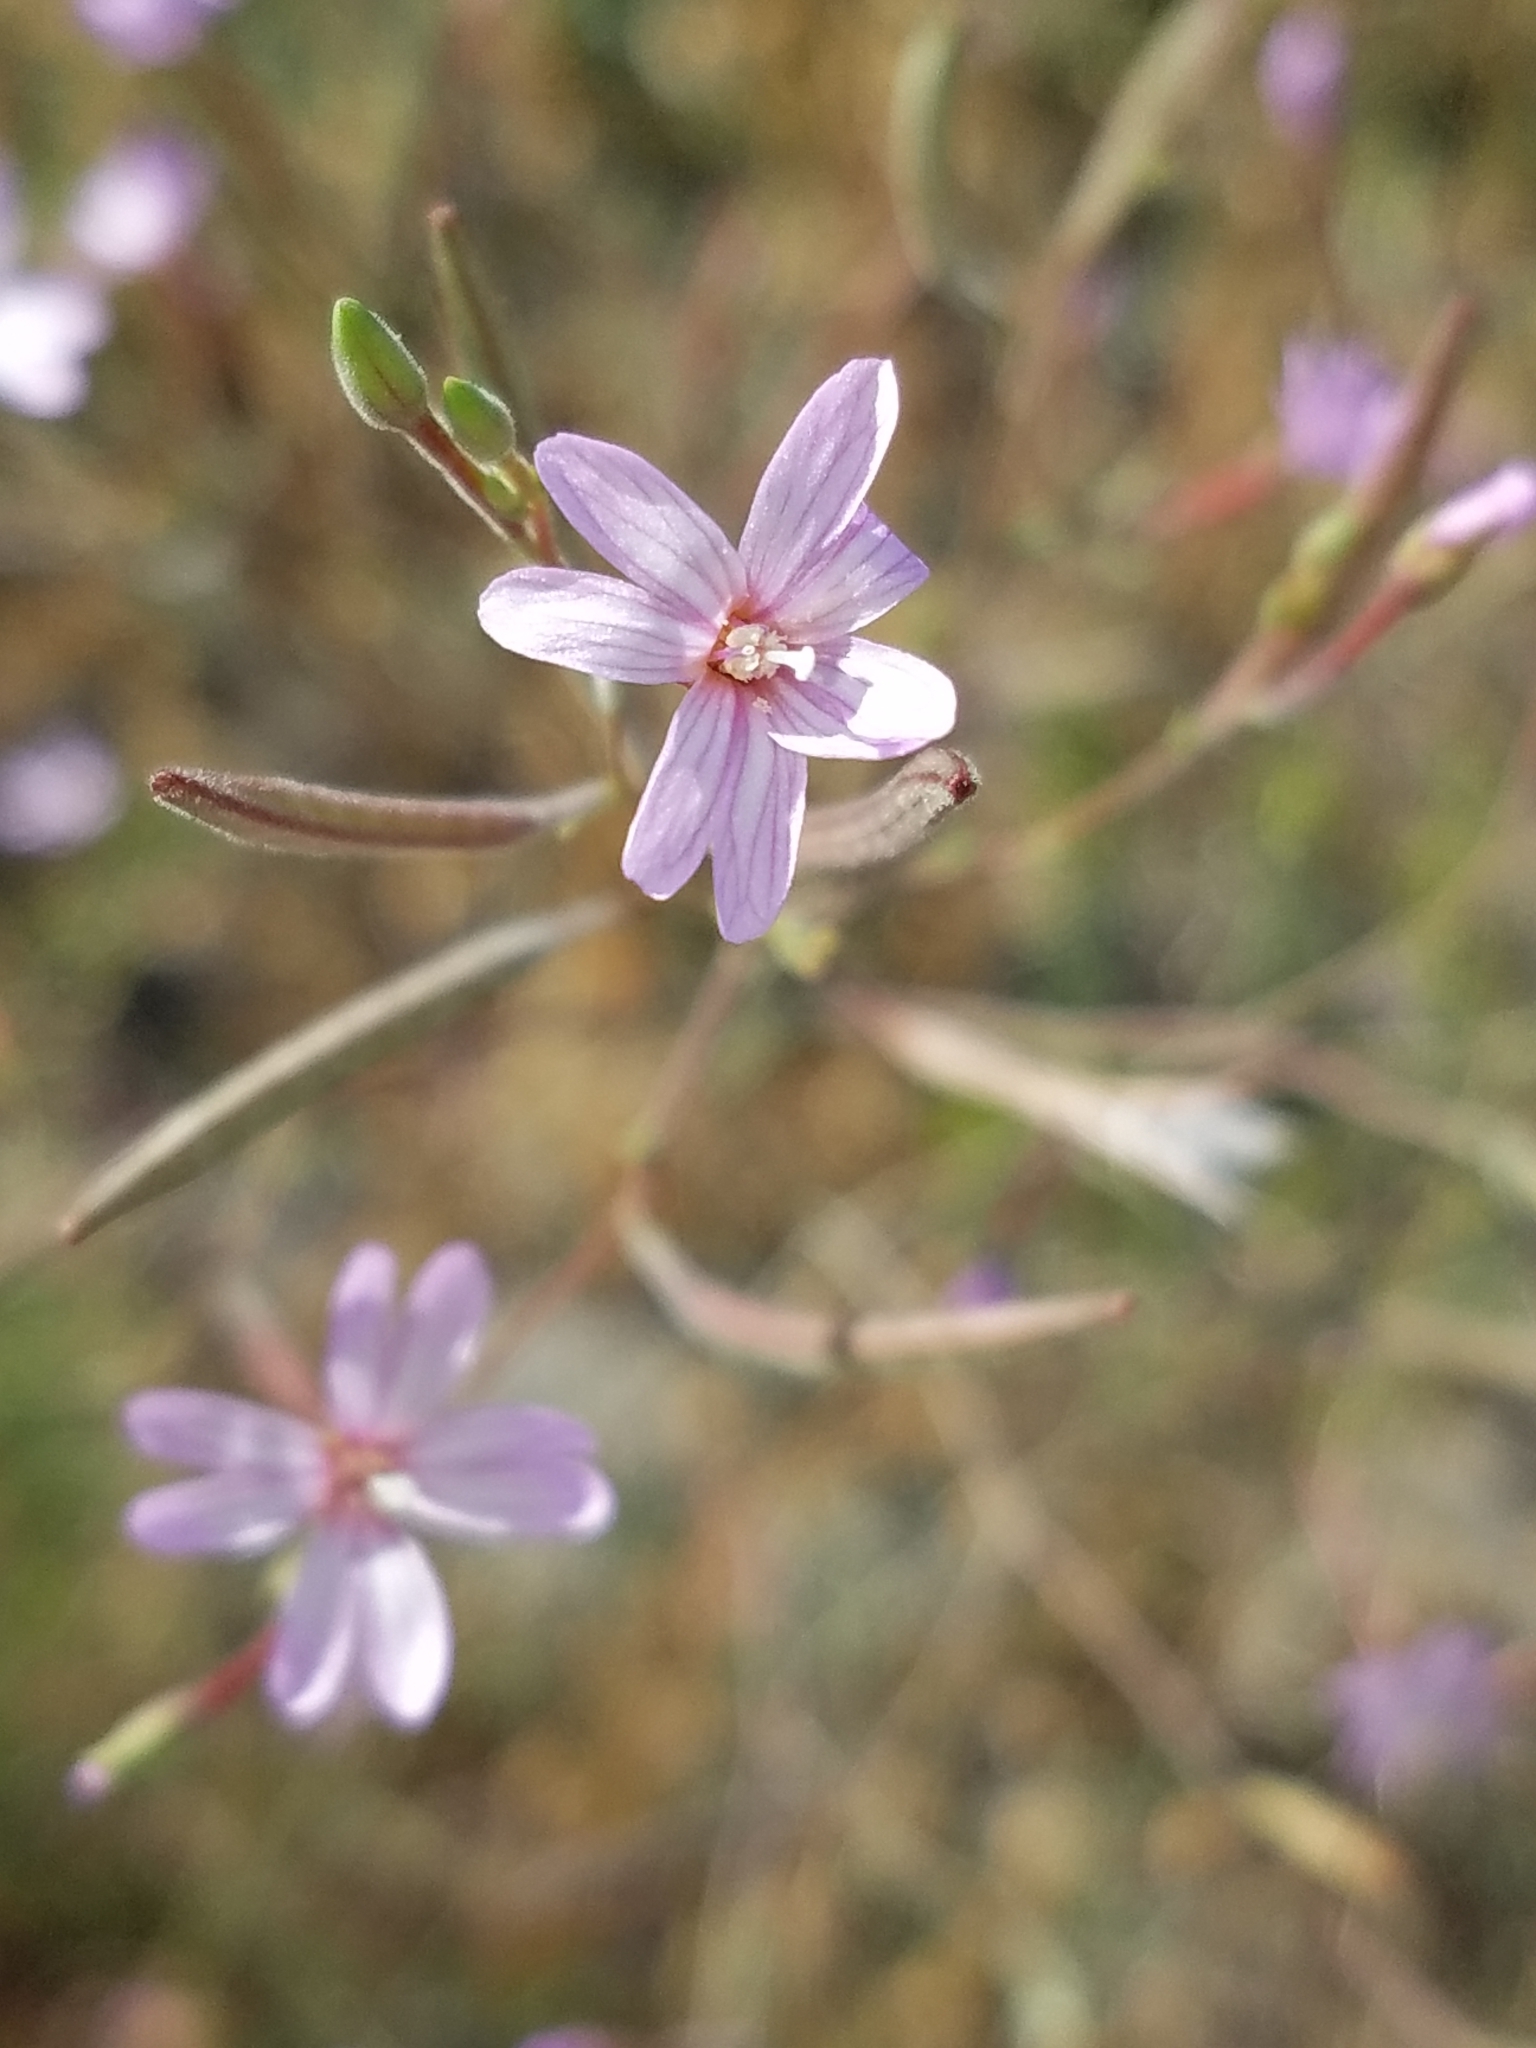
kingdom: Plantae
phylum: Tracheophyta
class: Magnoliopsida
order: Myrtales
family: Onagraceae
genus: Epilobium
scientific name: Epilobium brachycarpum
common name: Annual willowherb
